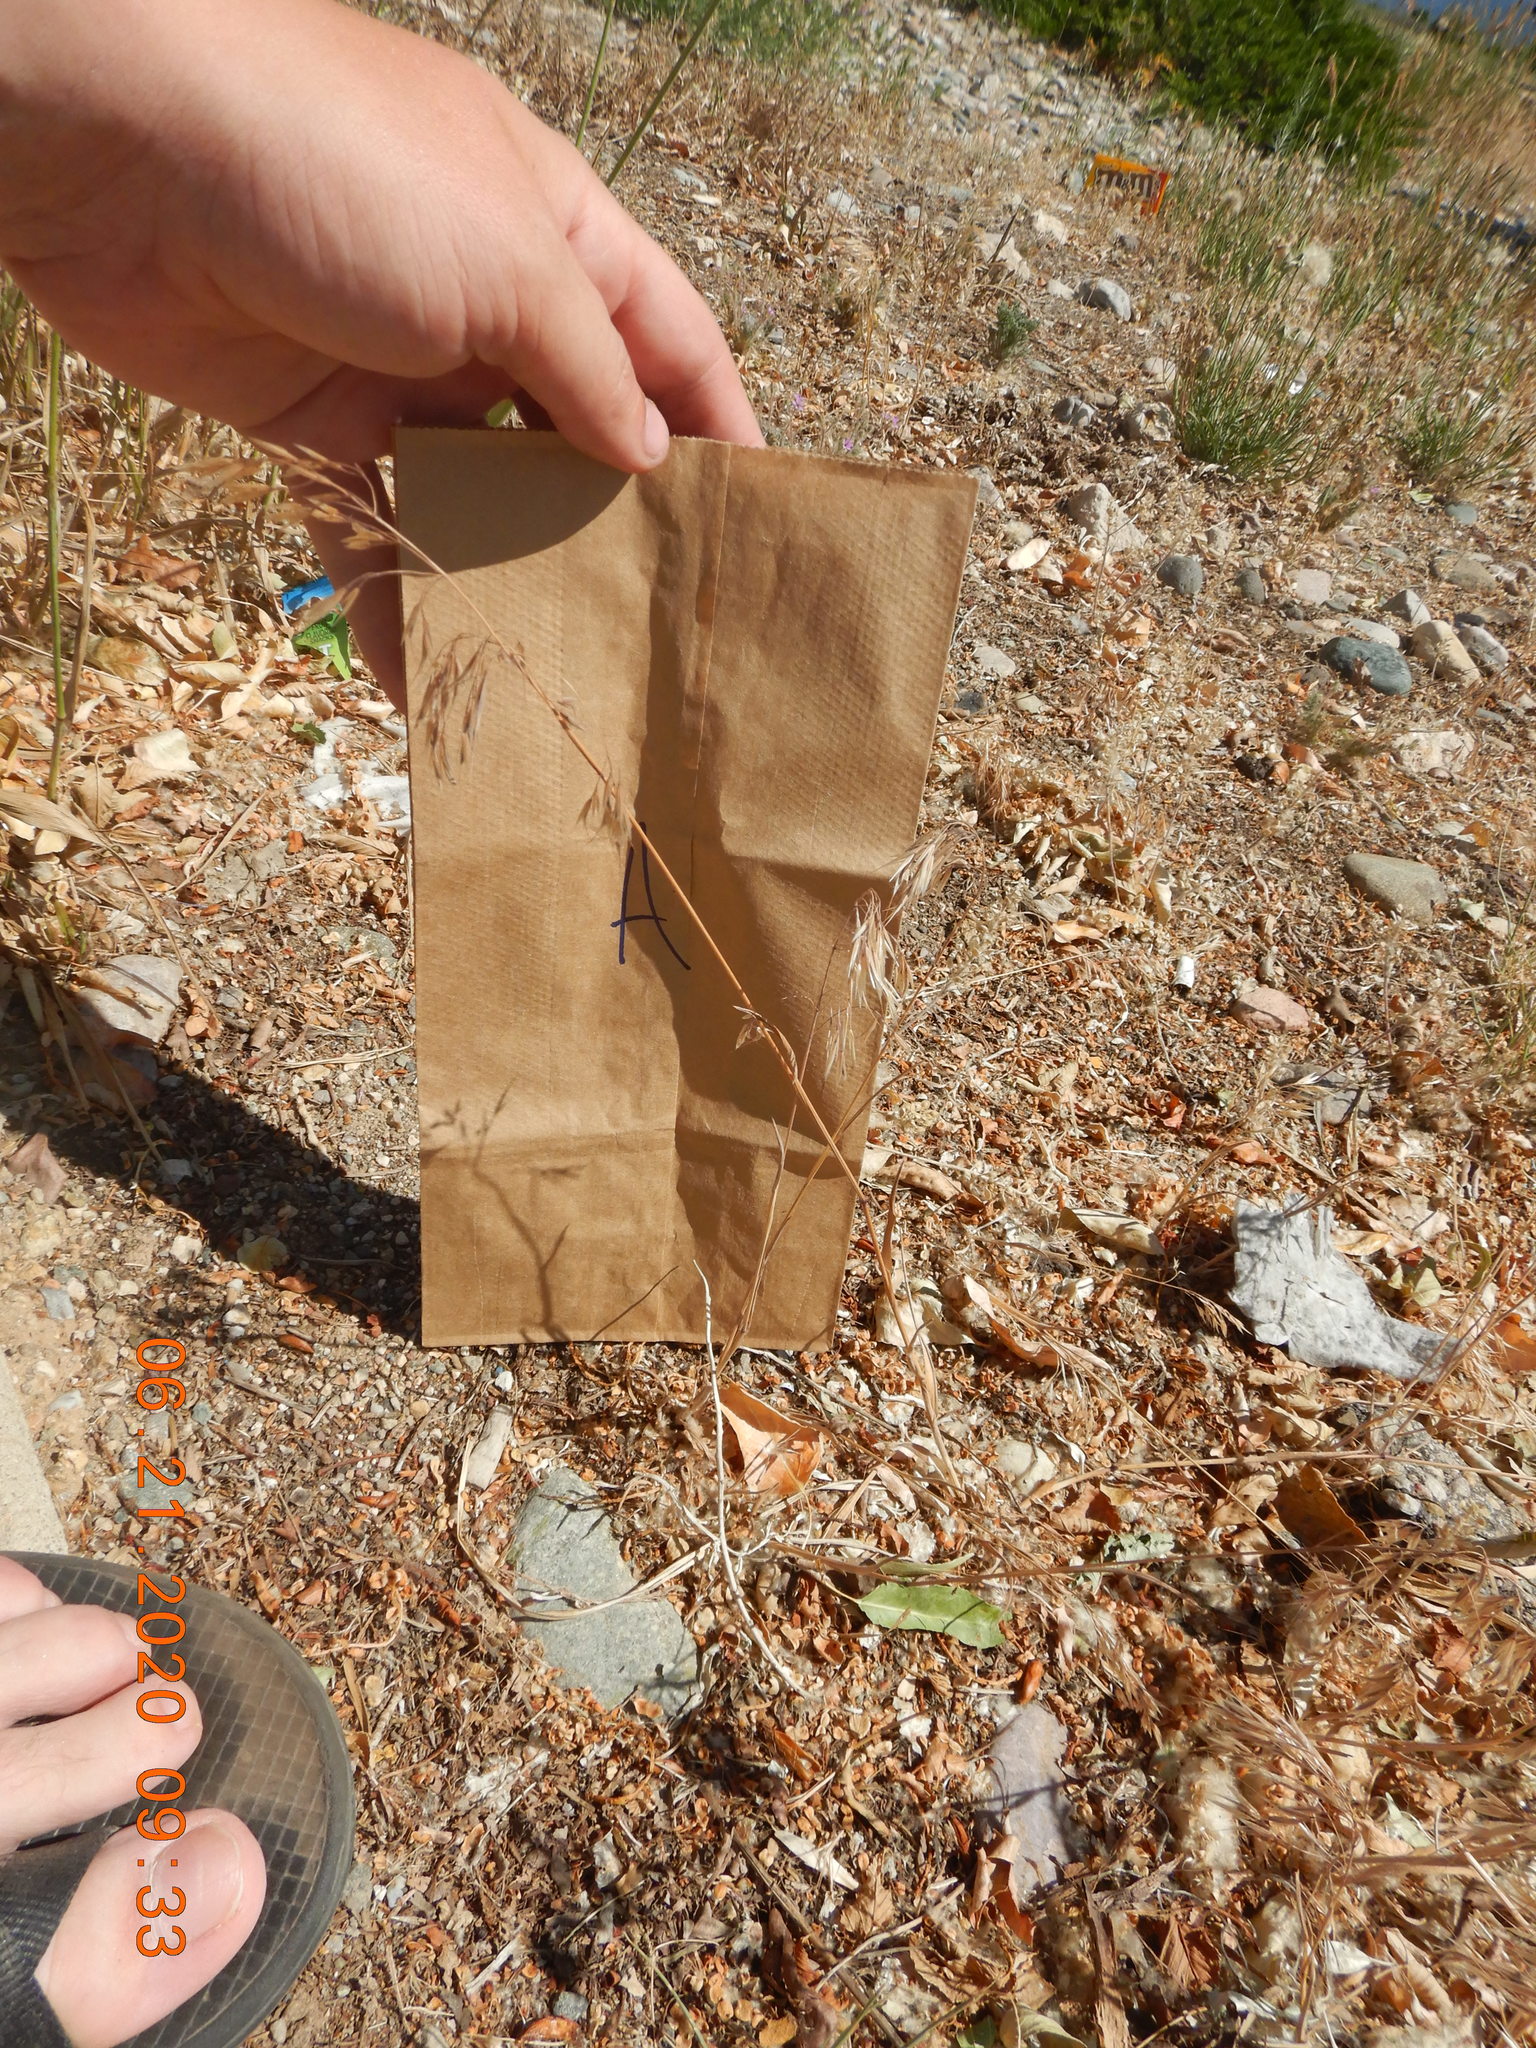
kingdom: Plantae
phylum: Tracheophyta
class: Liliopsida
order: Poales
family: Poaceae
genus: Bromus
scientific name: Bromus tectorum
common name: Cheatgrass
